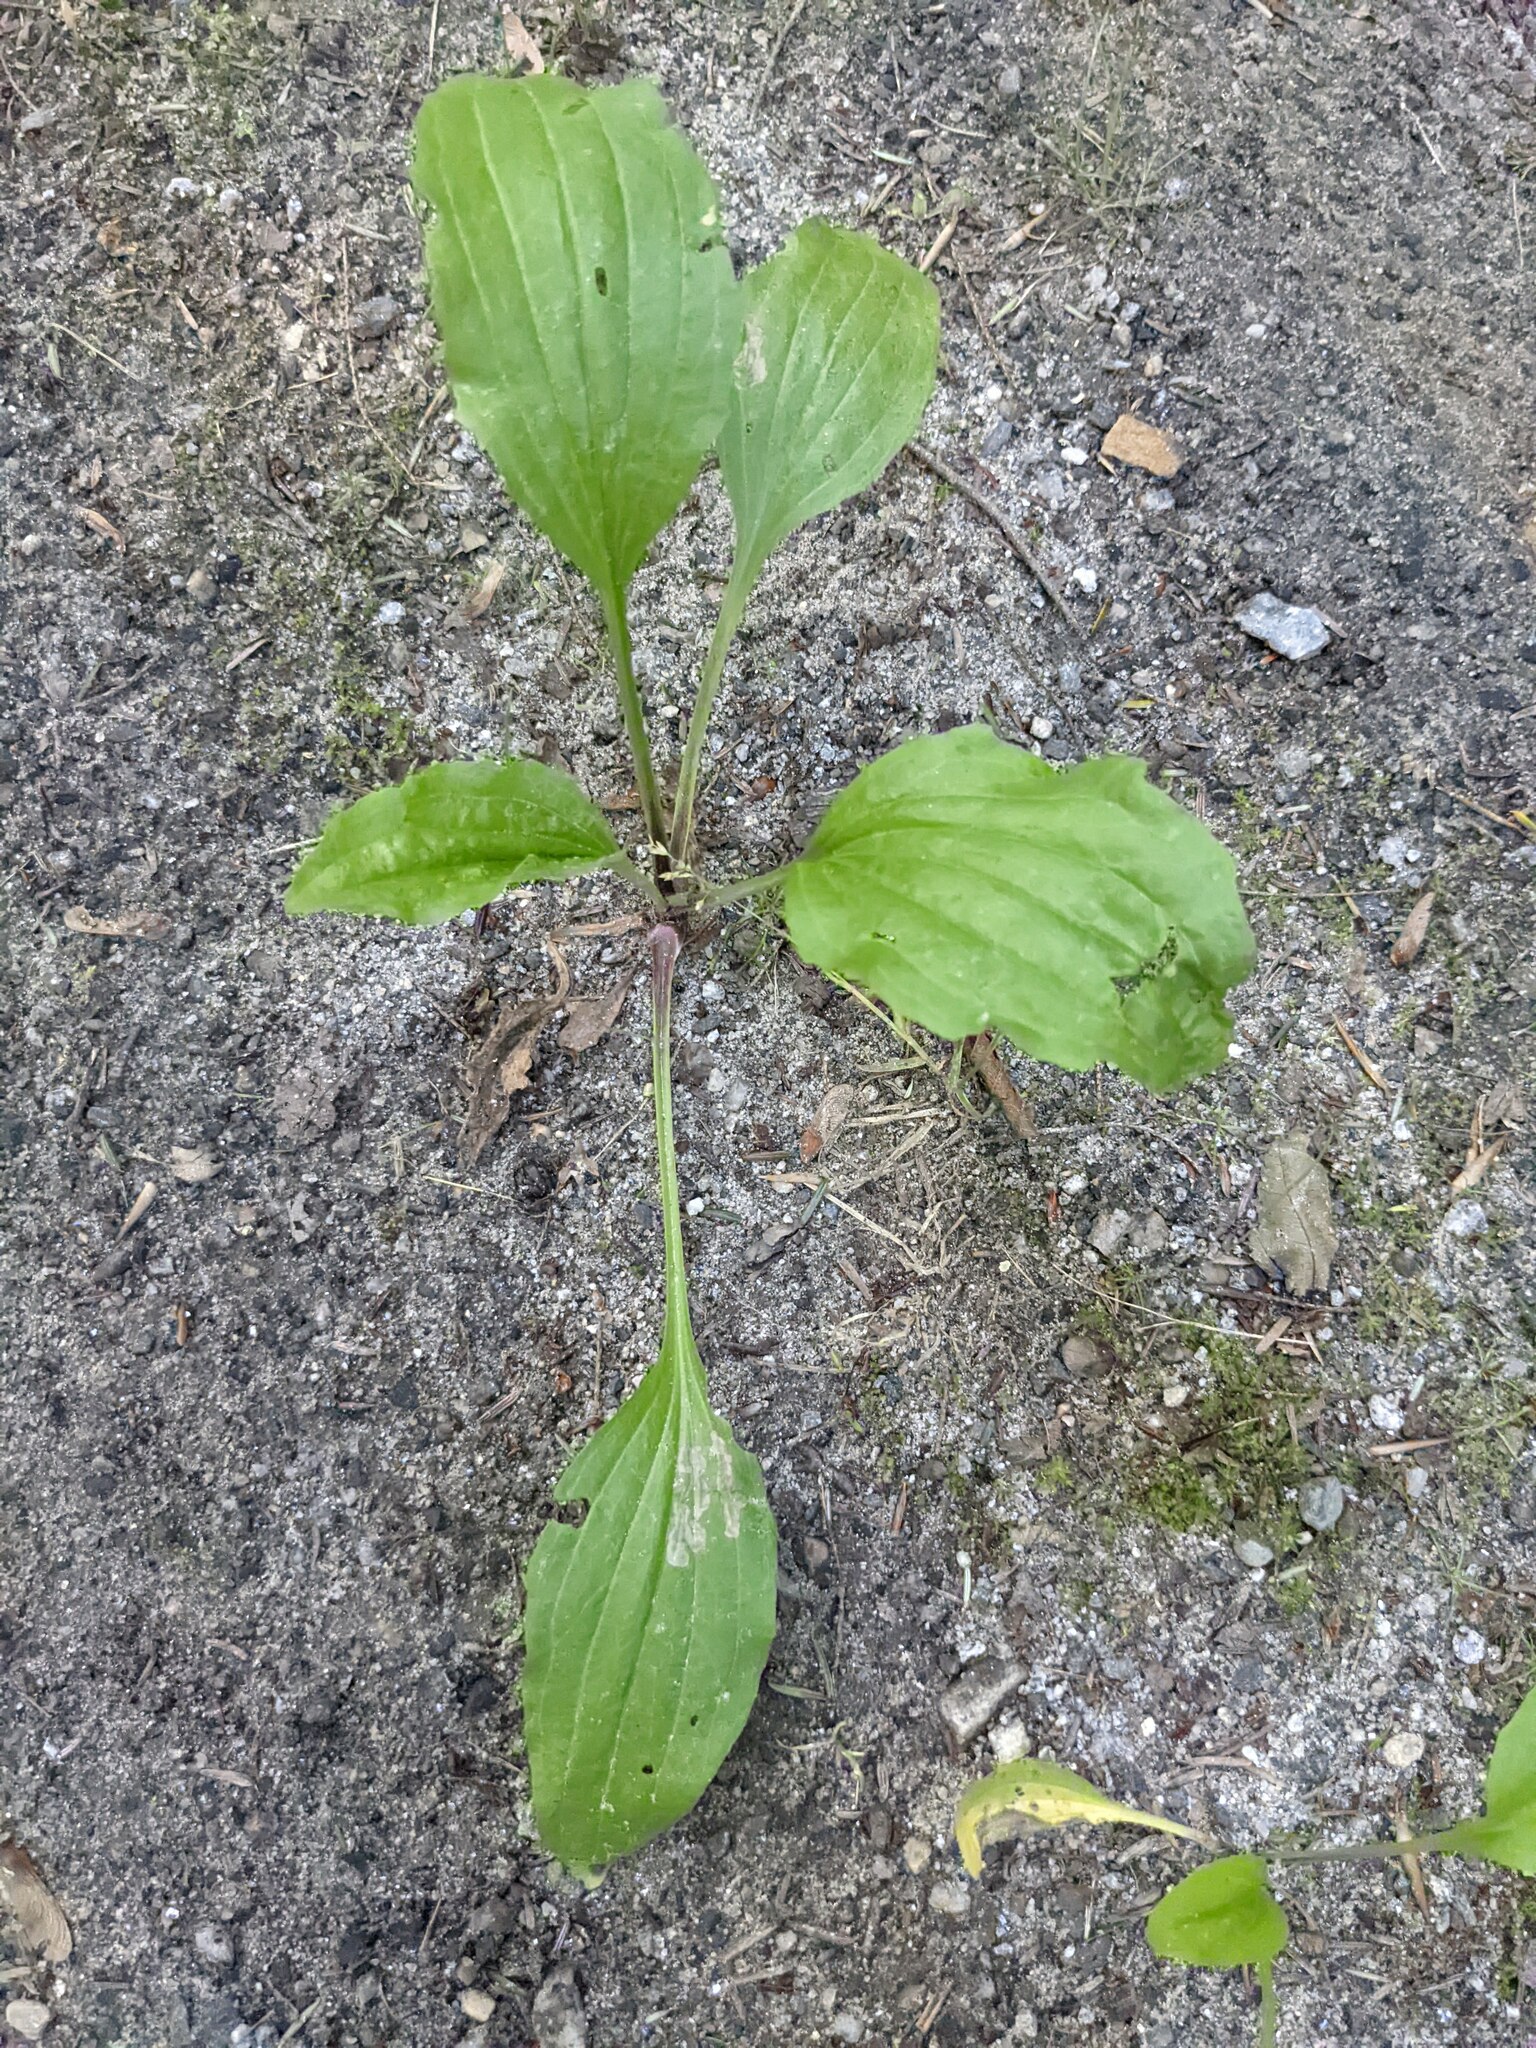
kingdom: Plantae
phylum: Tracheophyta
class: Magnoliopsida
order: Lamiales
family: Plantaginaceae
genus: Plantago
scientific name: Plantago rugelii
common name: American plantain
